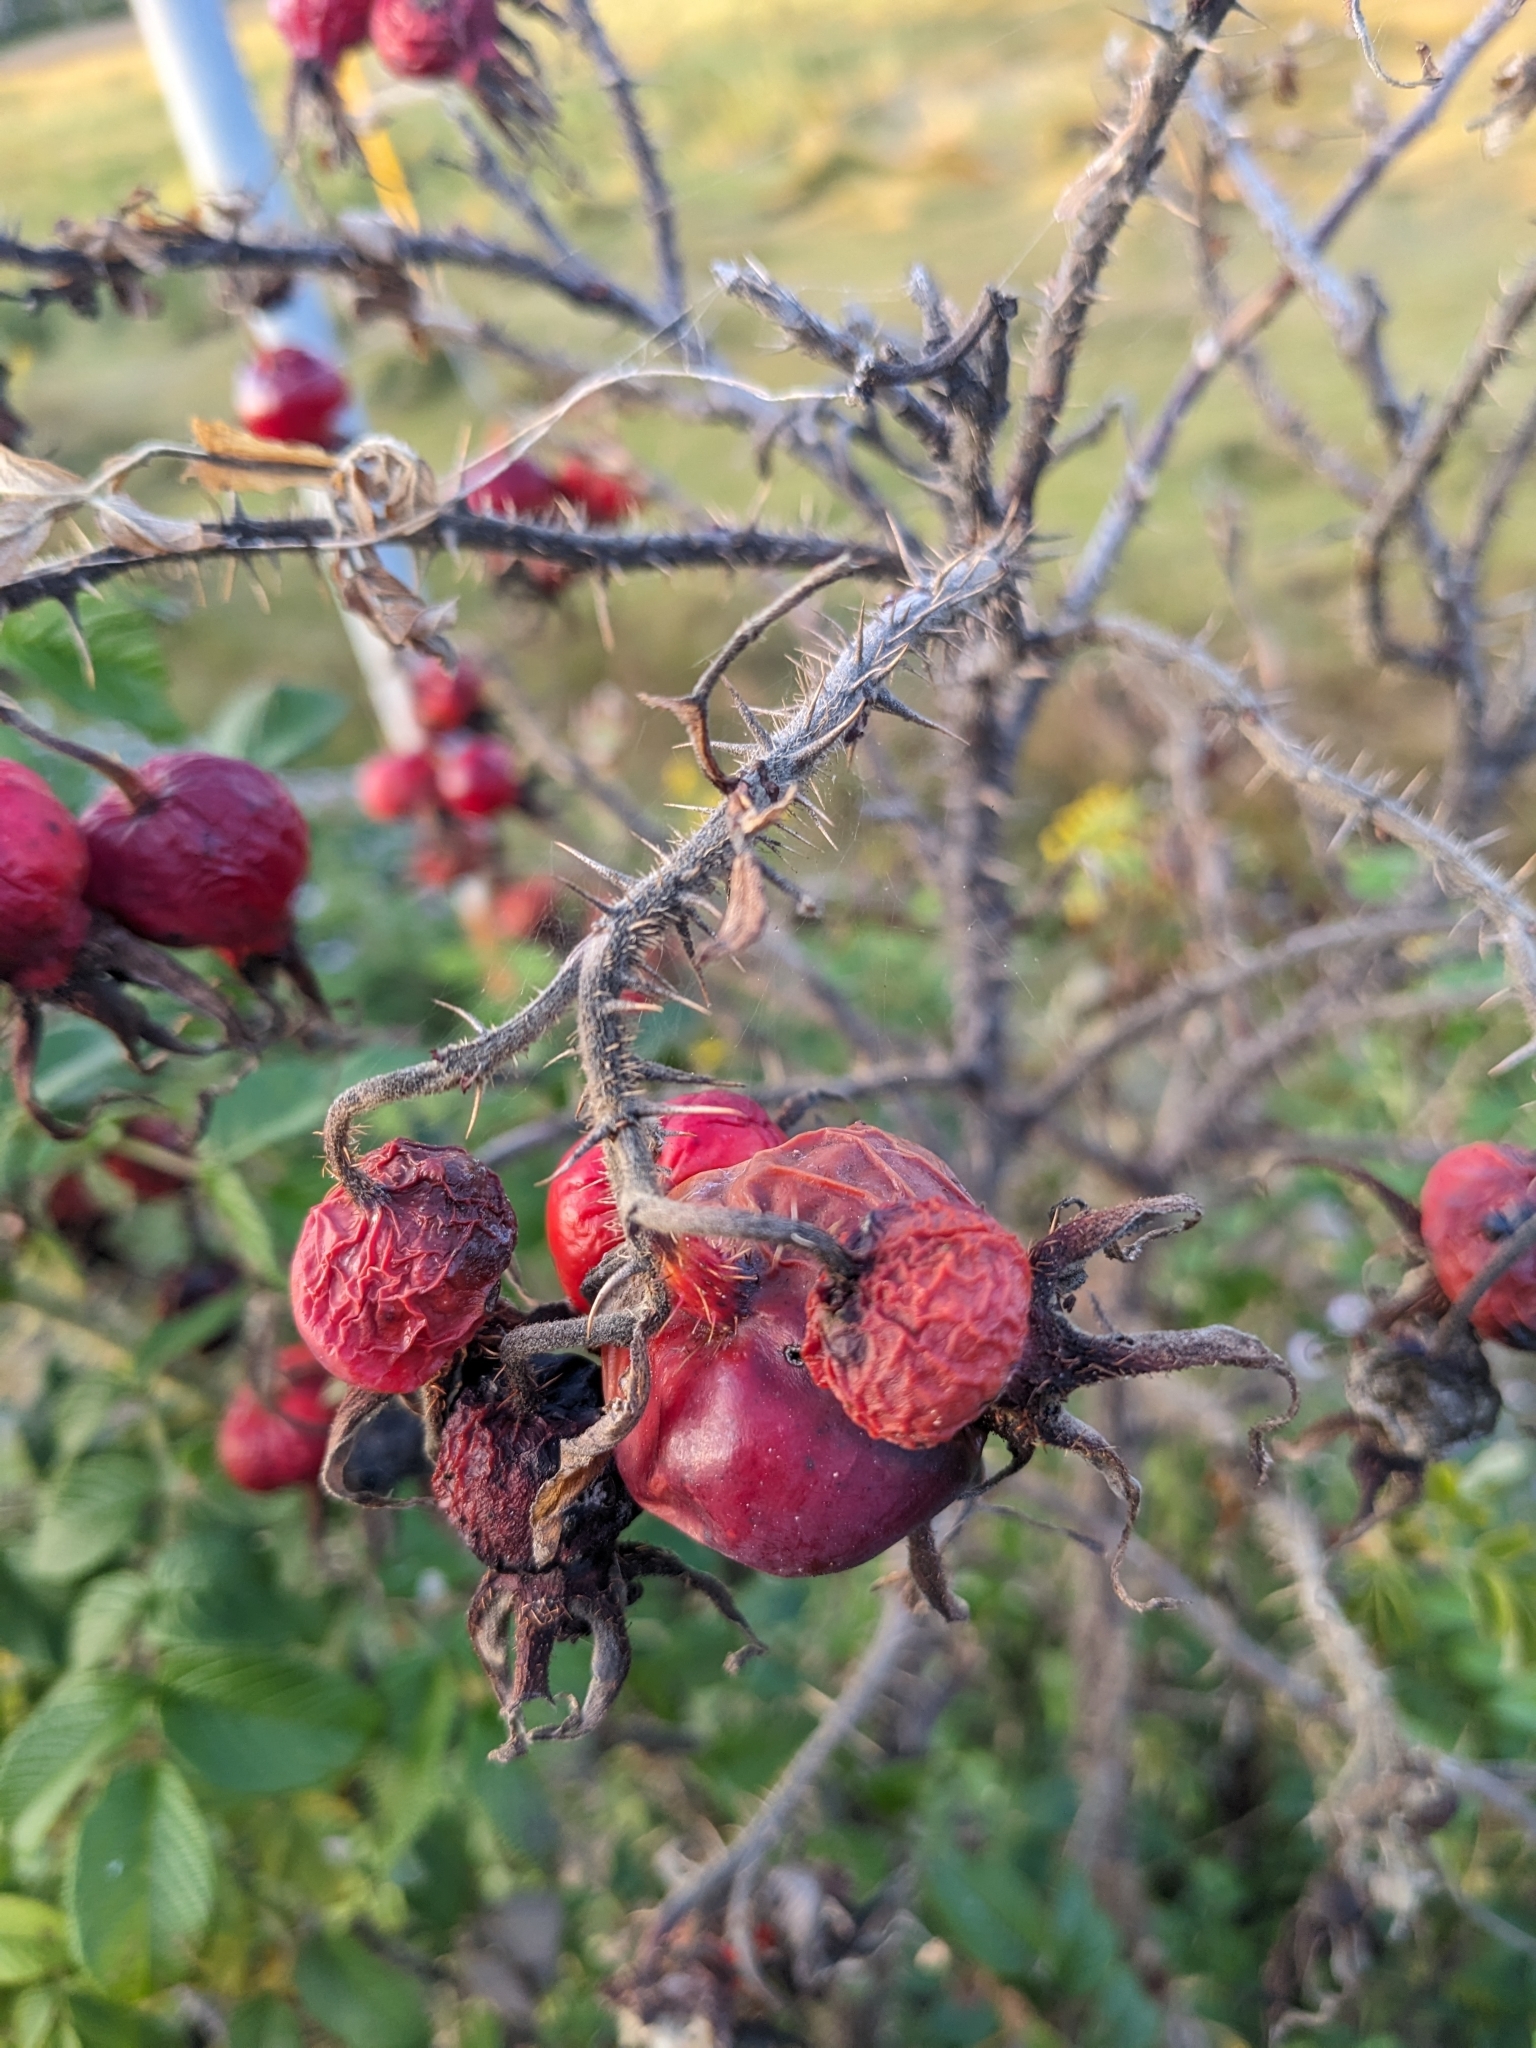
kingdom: Plantae
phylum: Tracheophyta
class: Magnoliopsida
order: Rosales
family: Rosaceae
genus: Rosa
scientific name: Rosa rugosa
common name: Japanese rose
